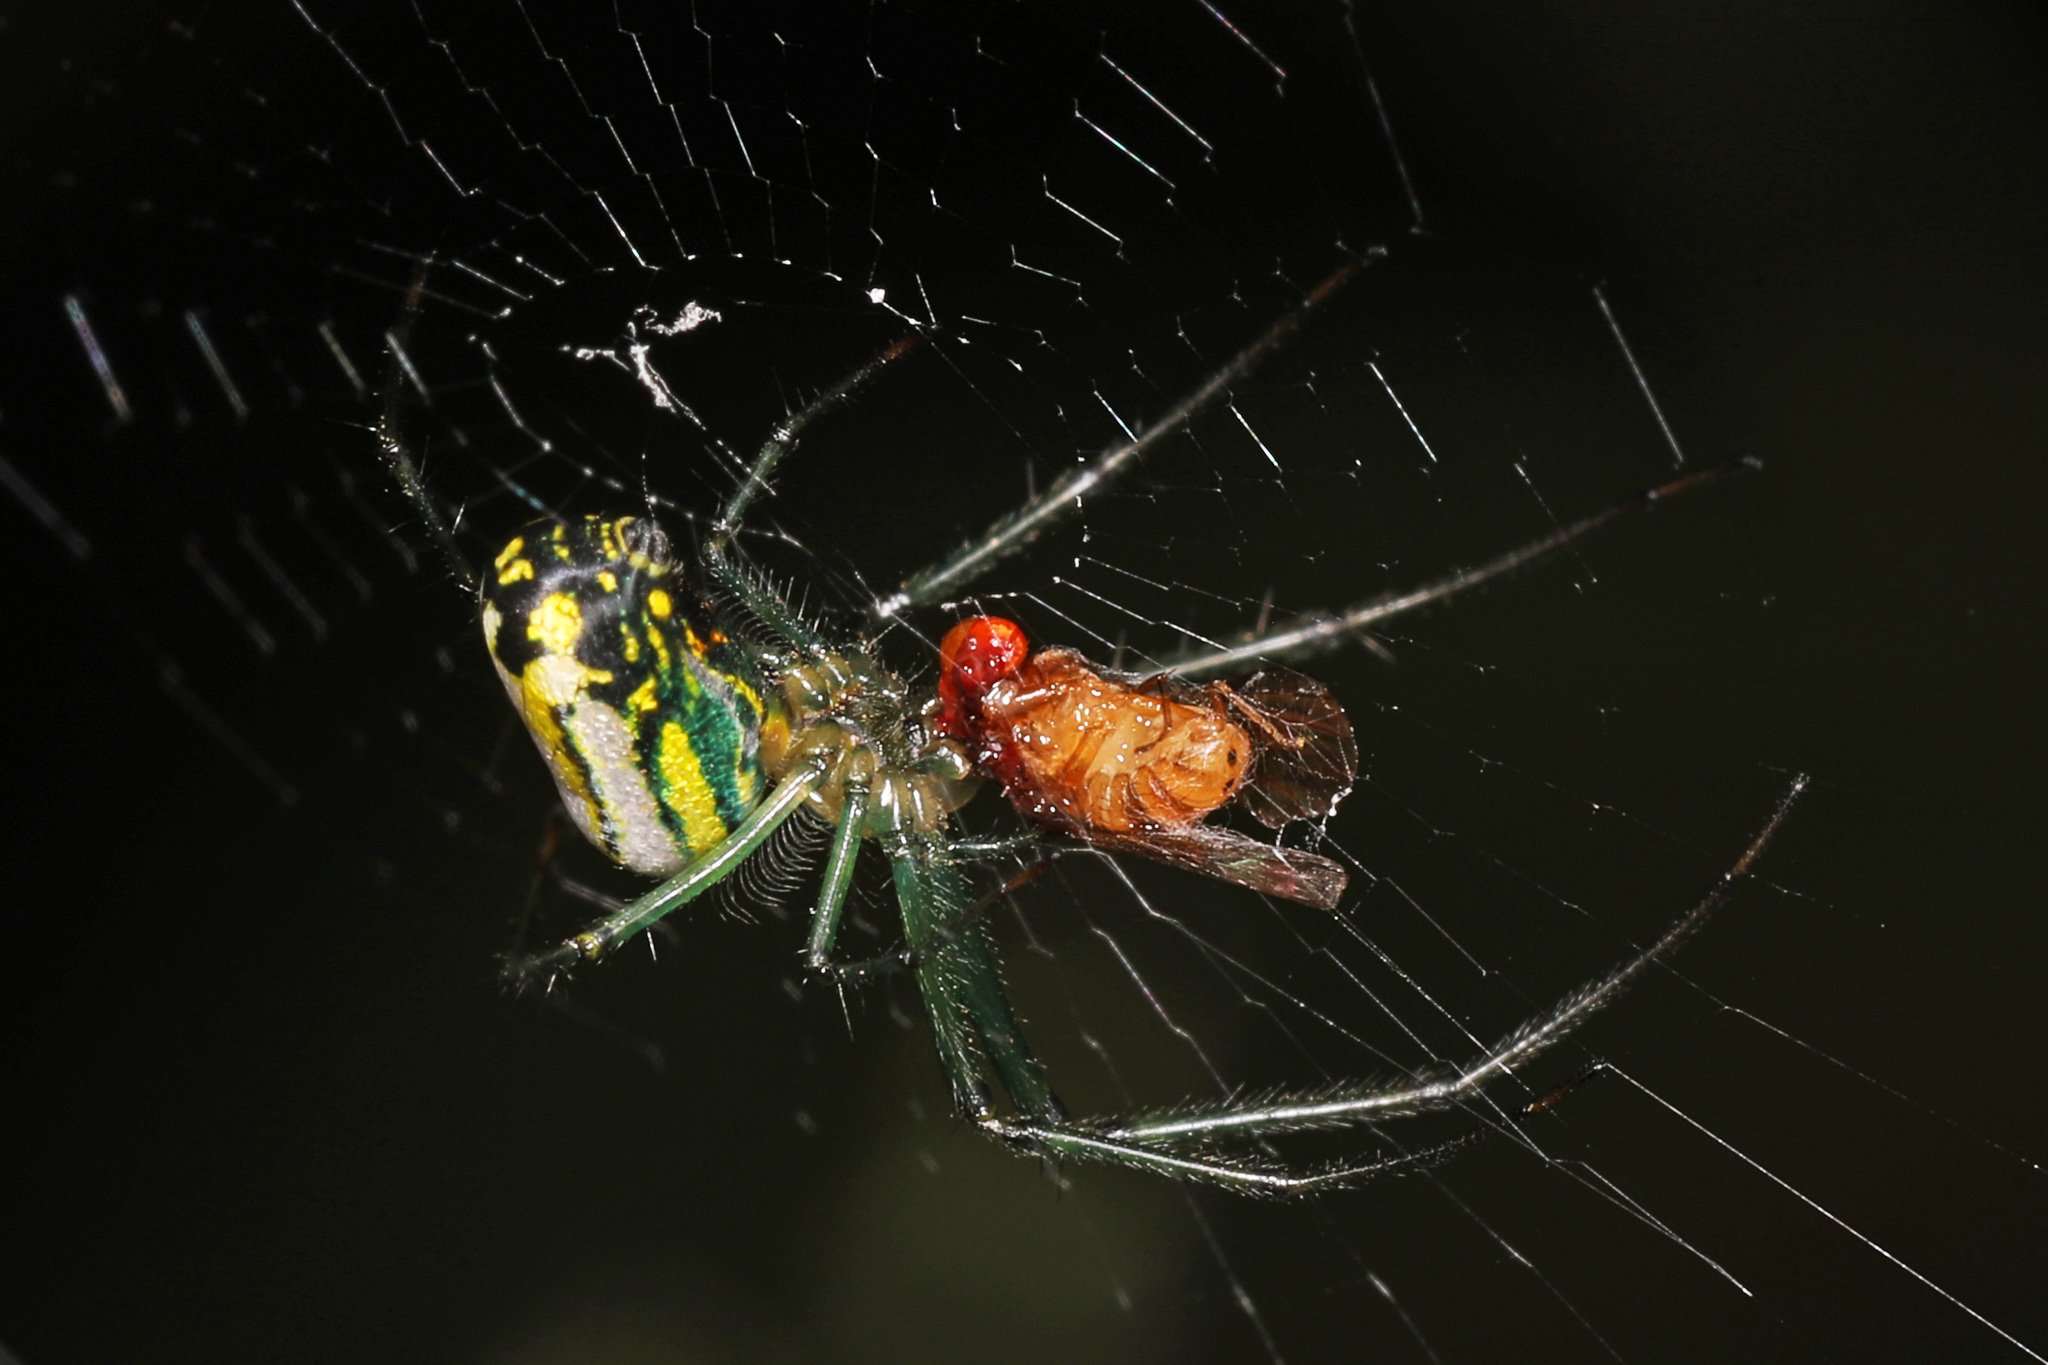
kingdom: Animalia
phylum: Arthropoda
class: Arachnida
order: Araneae
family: Tetragnathidae
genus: Leucauge
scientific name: Leucauge venusta
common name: Longjawed orb weavers
